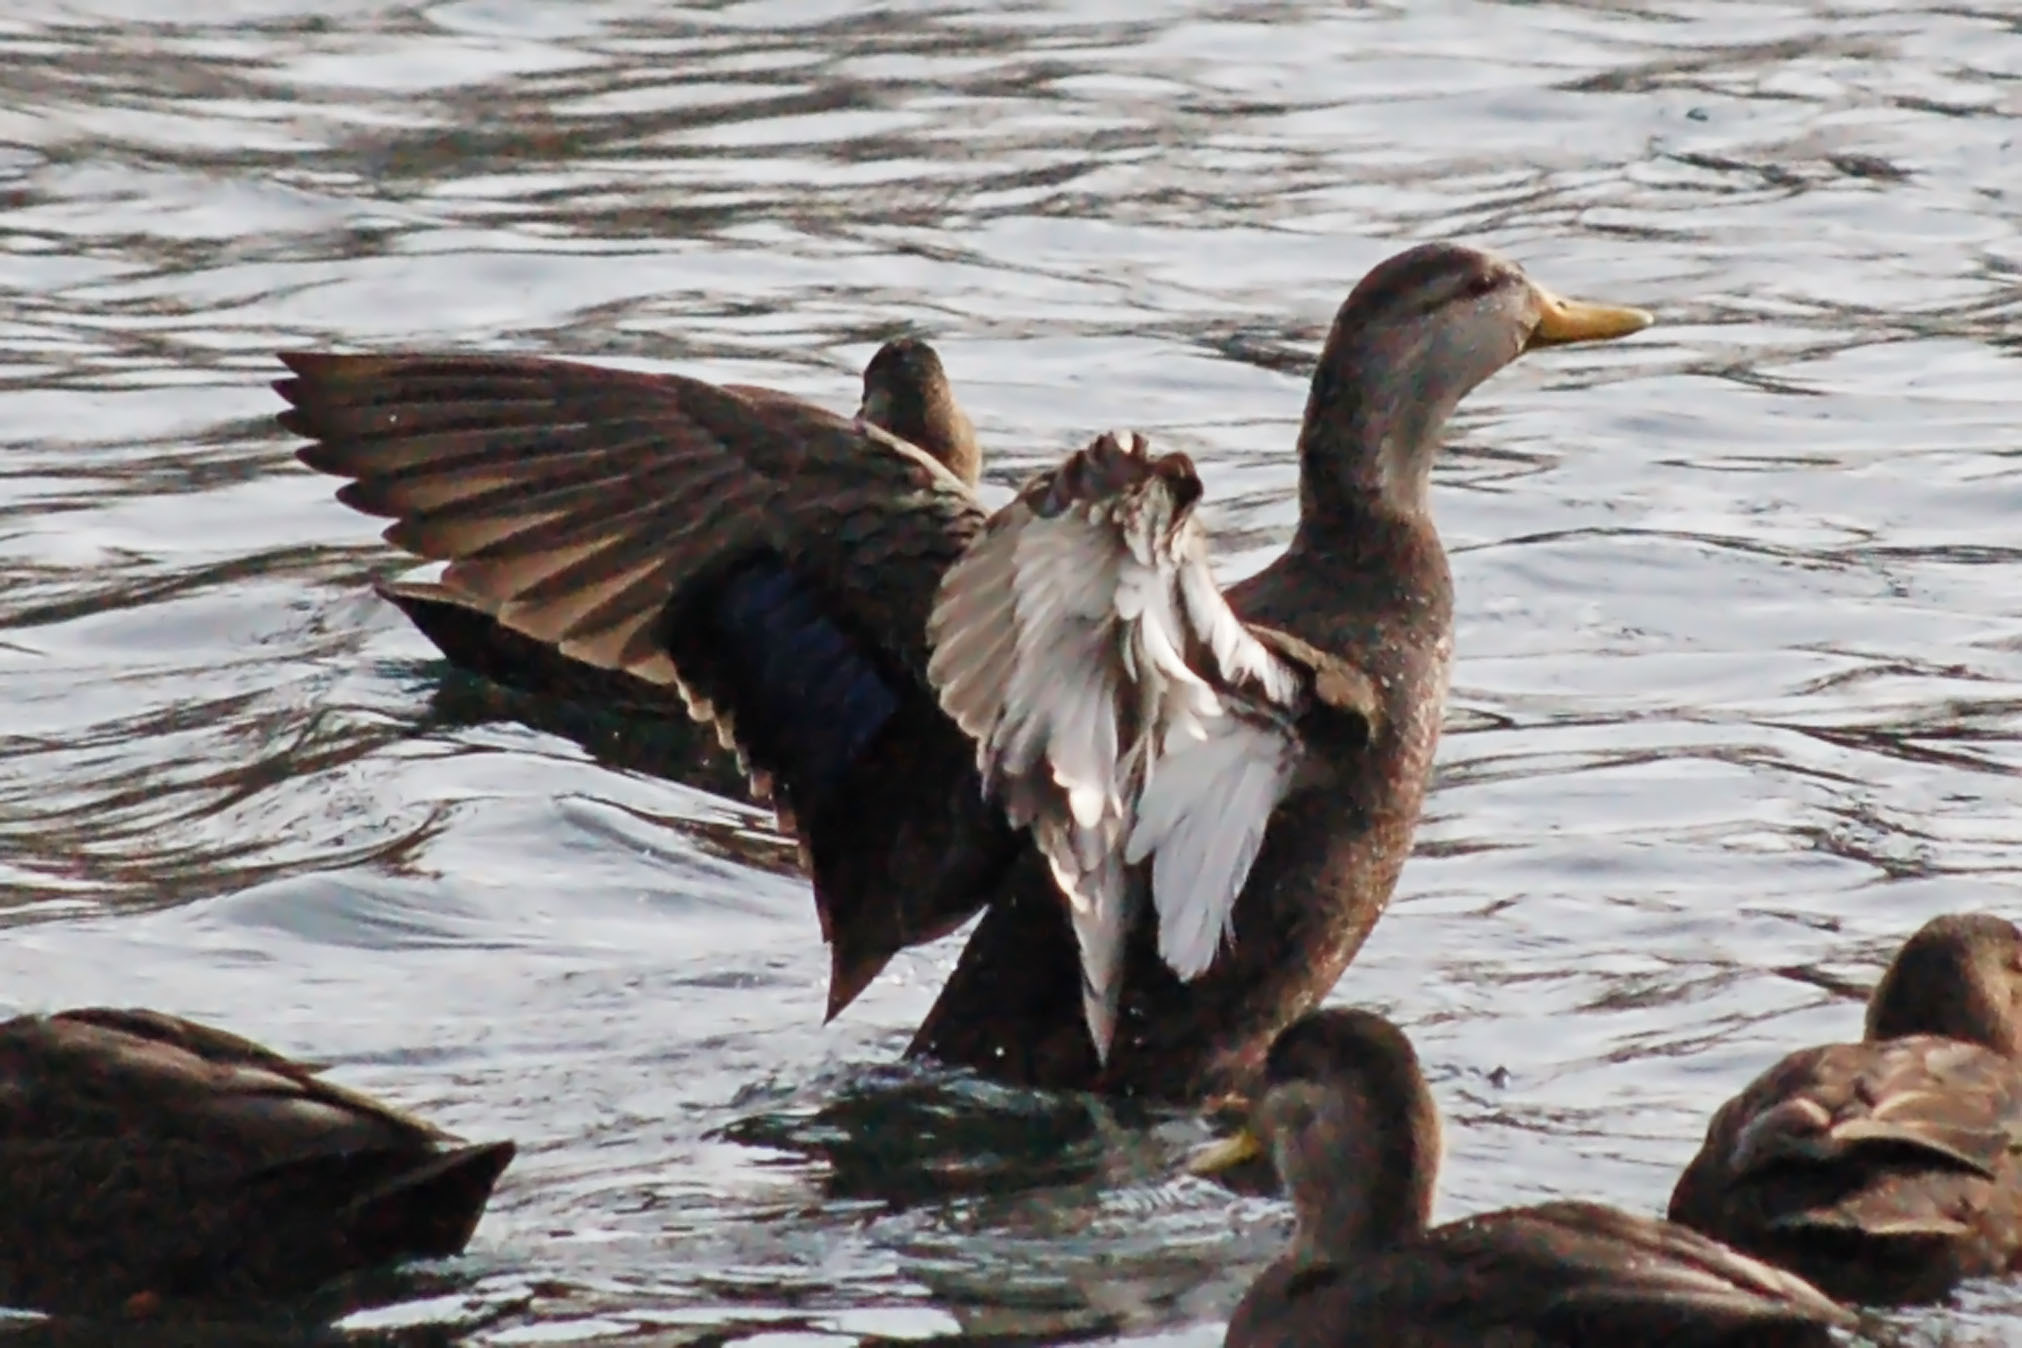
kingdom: Animalia
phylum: Chordata
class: Aves
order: Anseriformes
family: Anatidae
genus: Anas
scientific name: Anas rubripes
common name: American black duck
